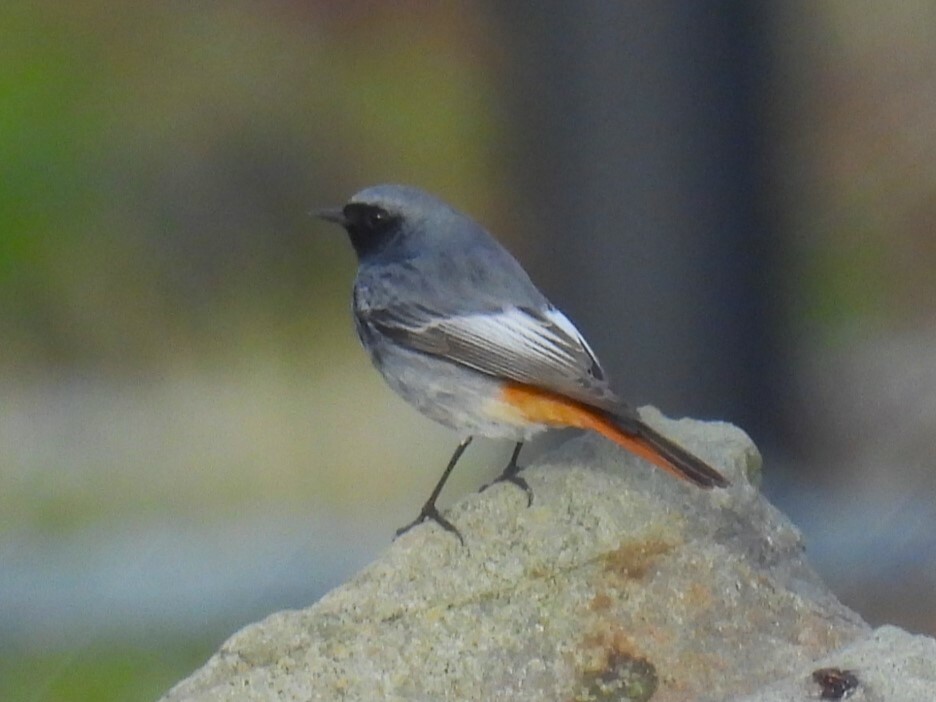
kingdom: Animalia
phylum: Chordata
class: Aves
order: Passeriformes
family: Muscicapidae
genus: Phoenicurus
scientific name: Phoenicurus ochruros
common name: Black redstart
